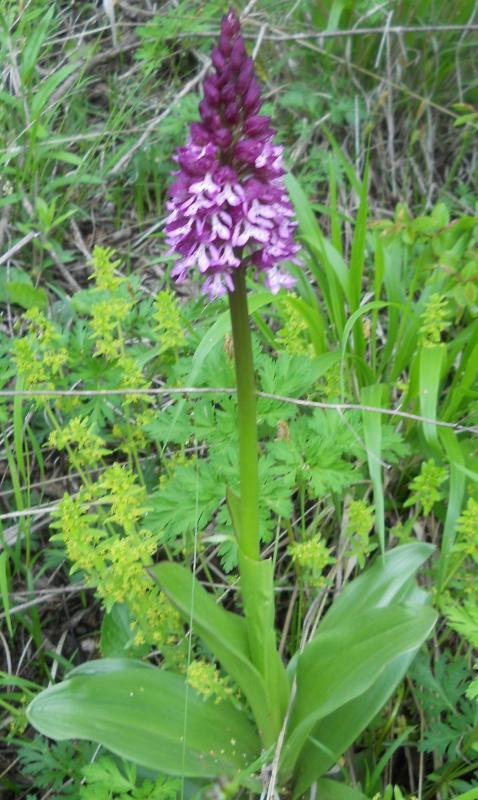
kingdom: Plantae
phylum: Tracheophyta
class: Liliopsida
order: Asparagales
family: Orchidaceae
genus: Orchis
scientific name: Orchis purpurea
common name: Lady orchid
